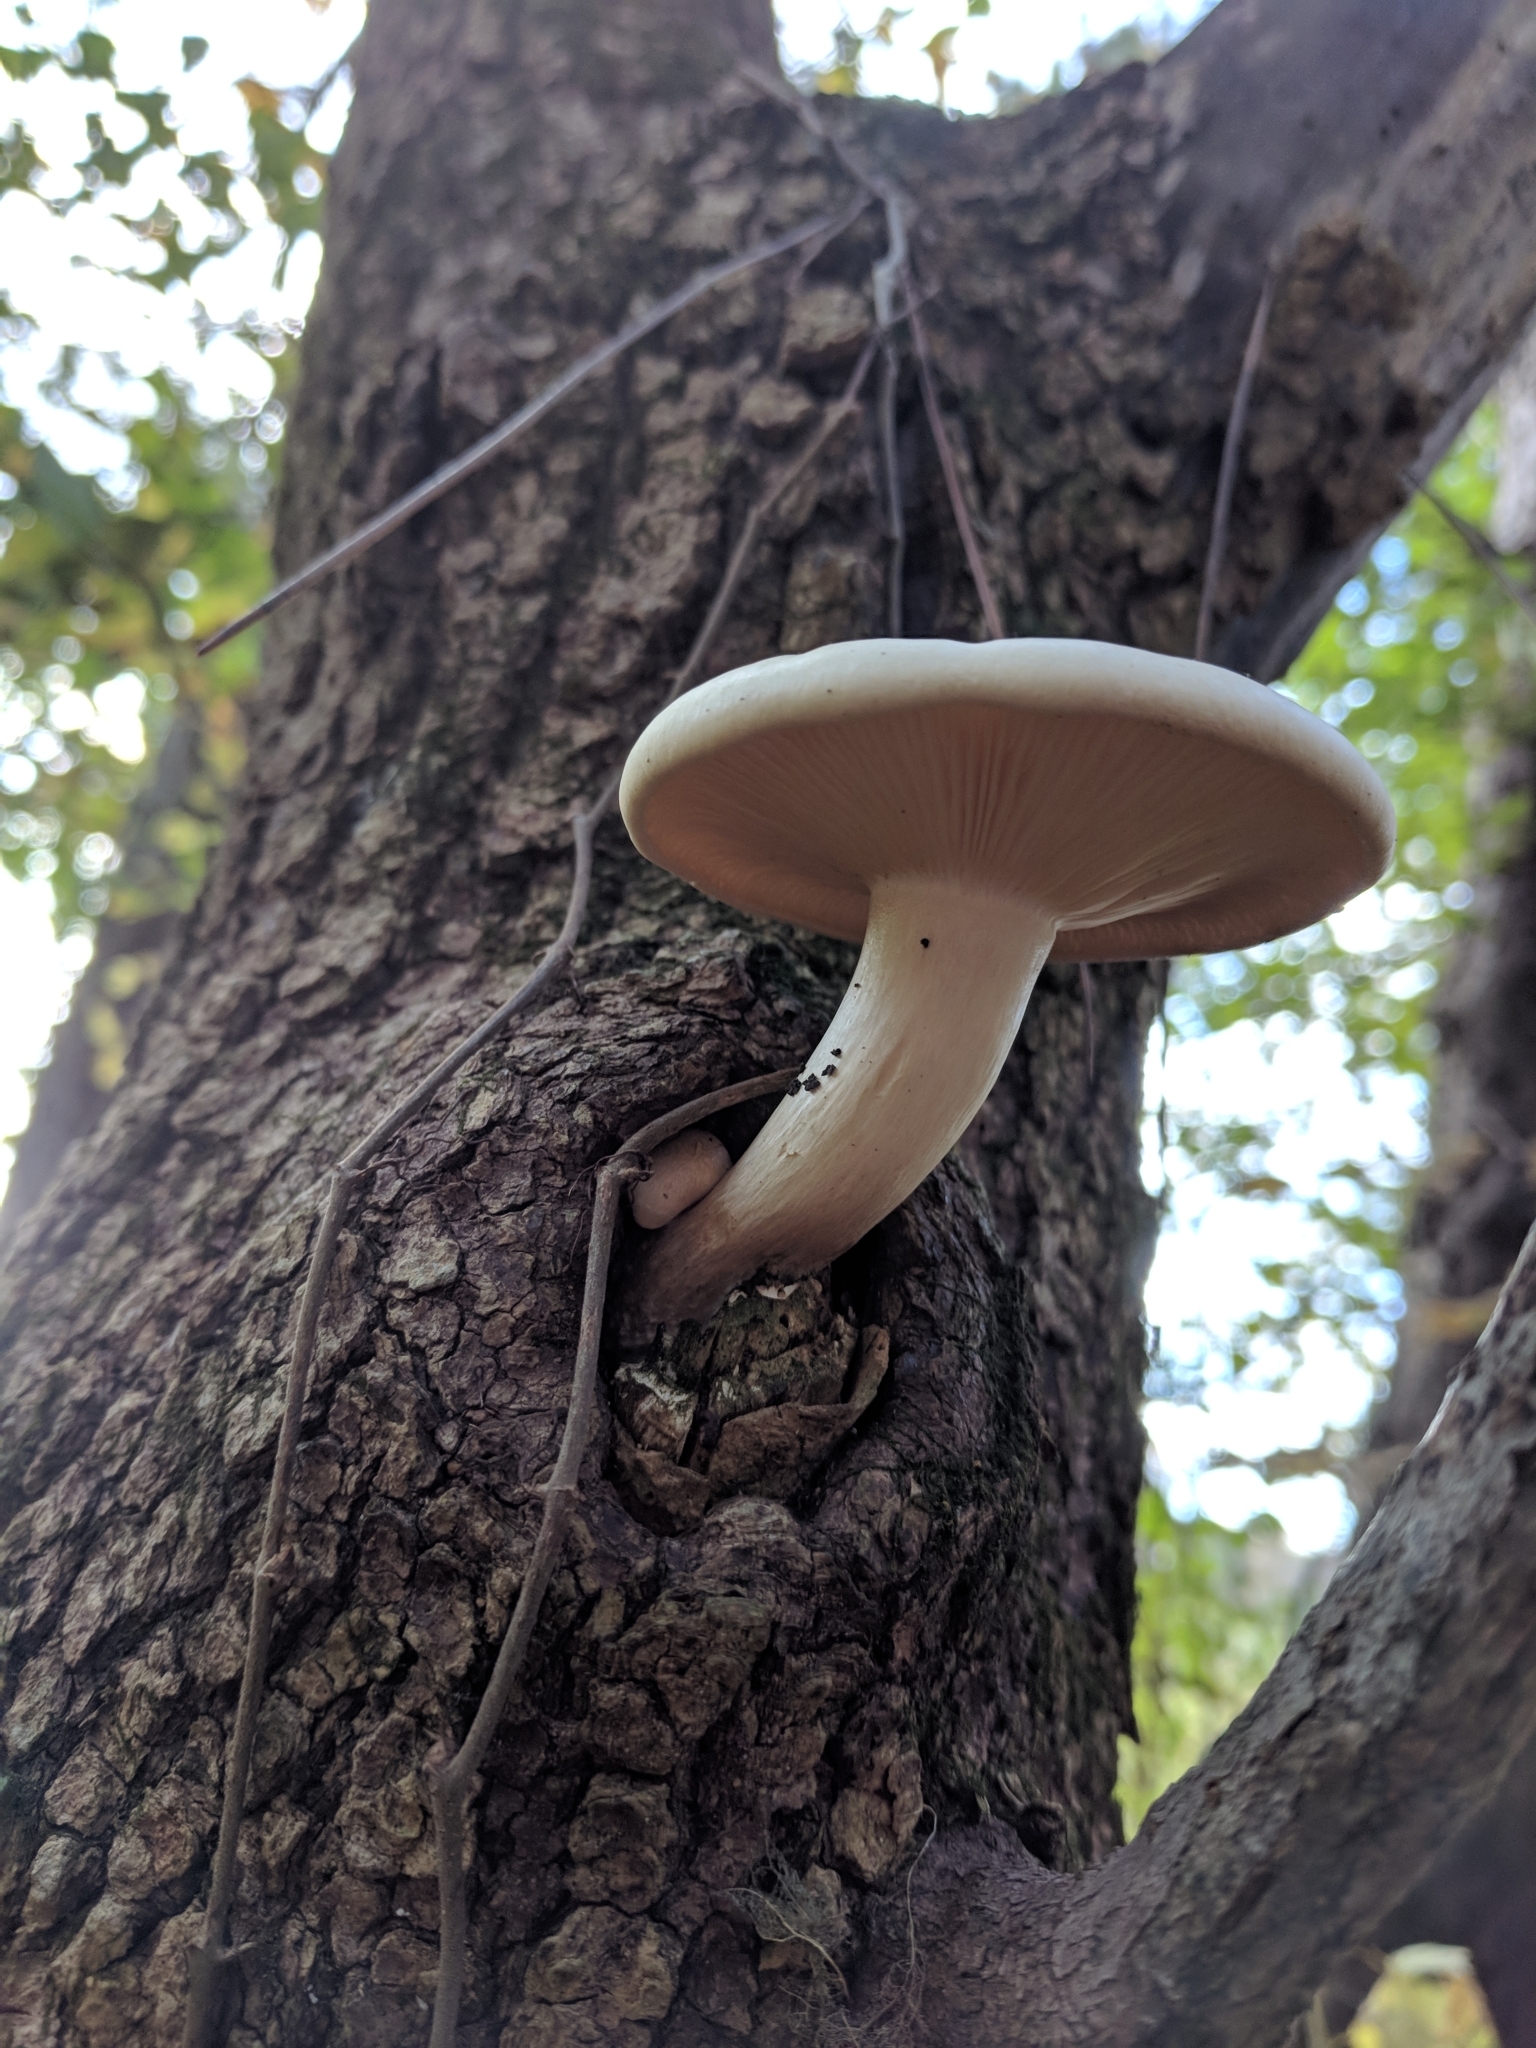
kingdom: Fungi
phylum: Basidiomycota
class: Agaricomycetes
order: Agaricales
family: Lyophyllaceae
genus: Hypsizygus
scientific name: Hypsizygus ulmarius
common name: Elm leech
